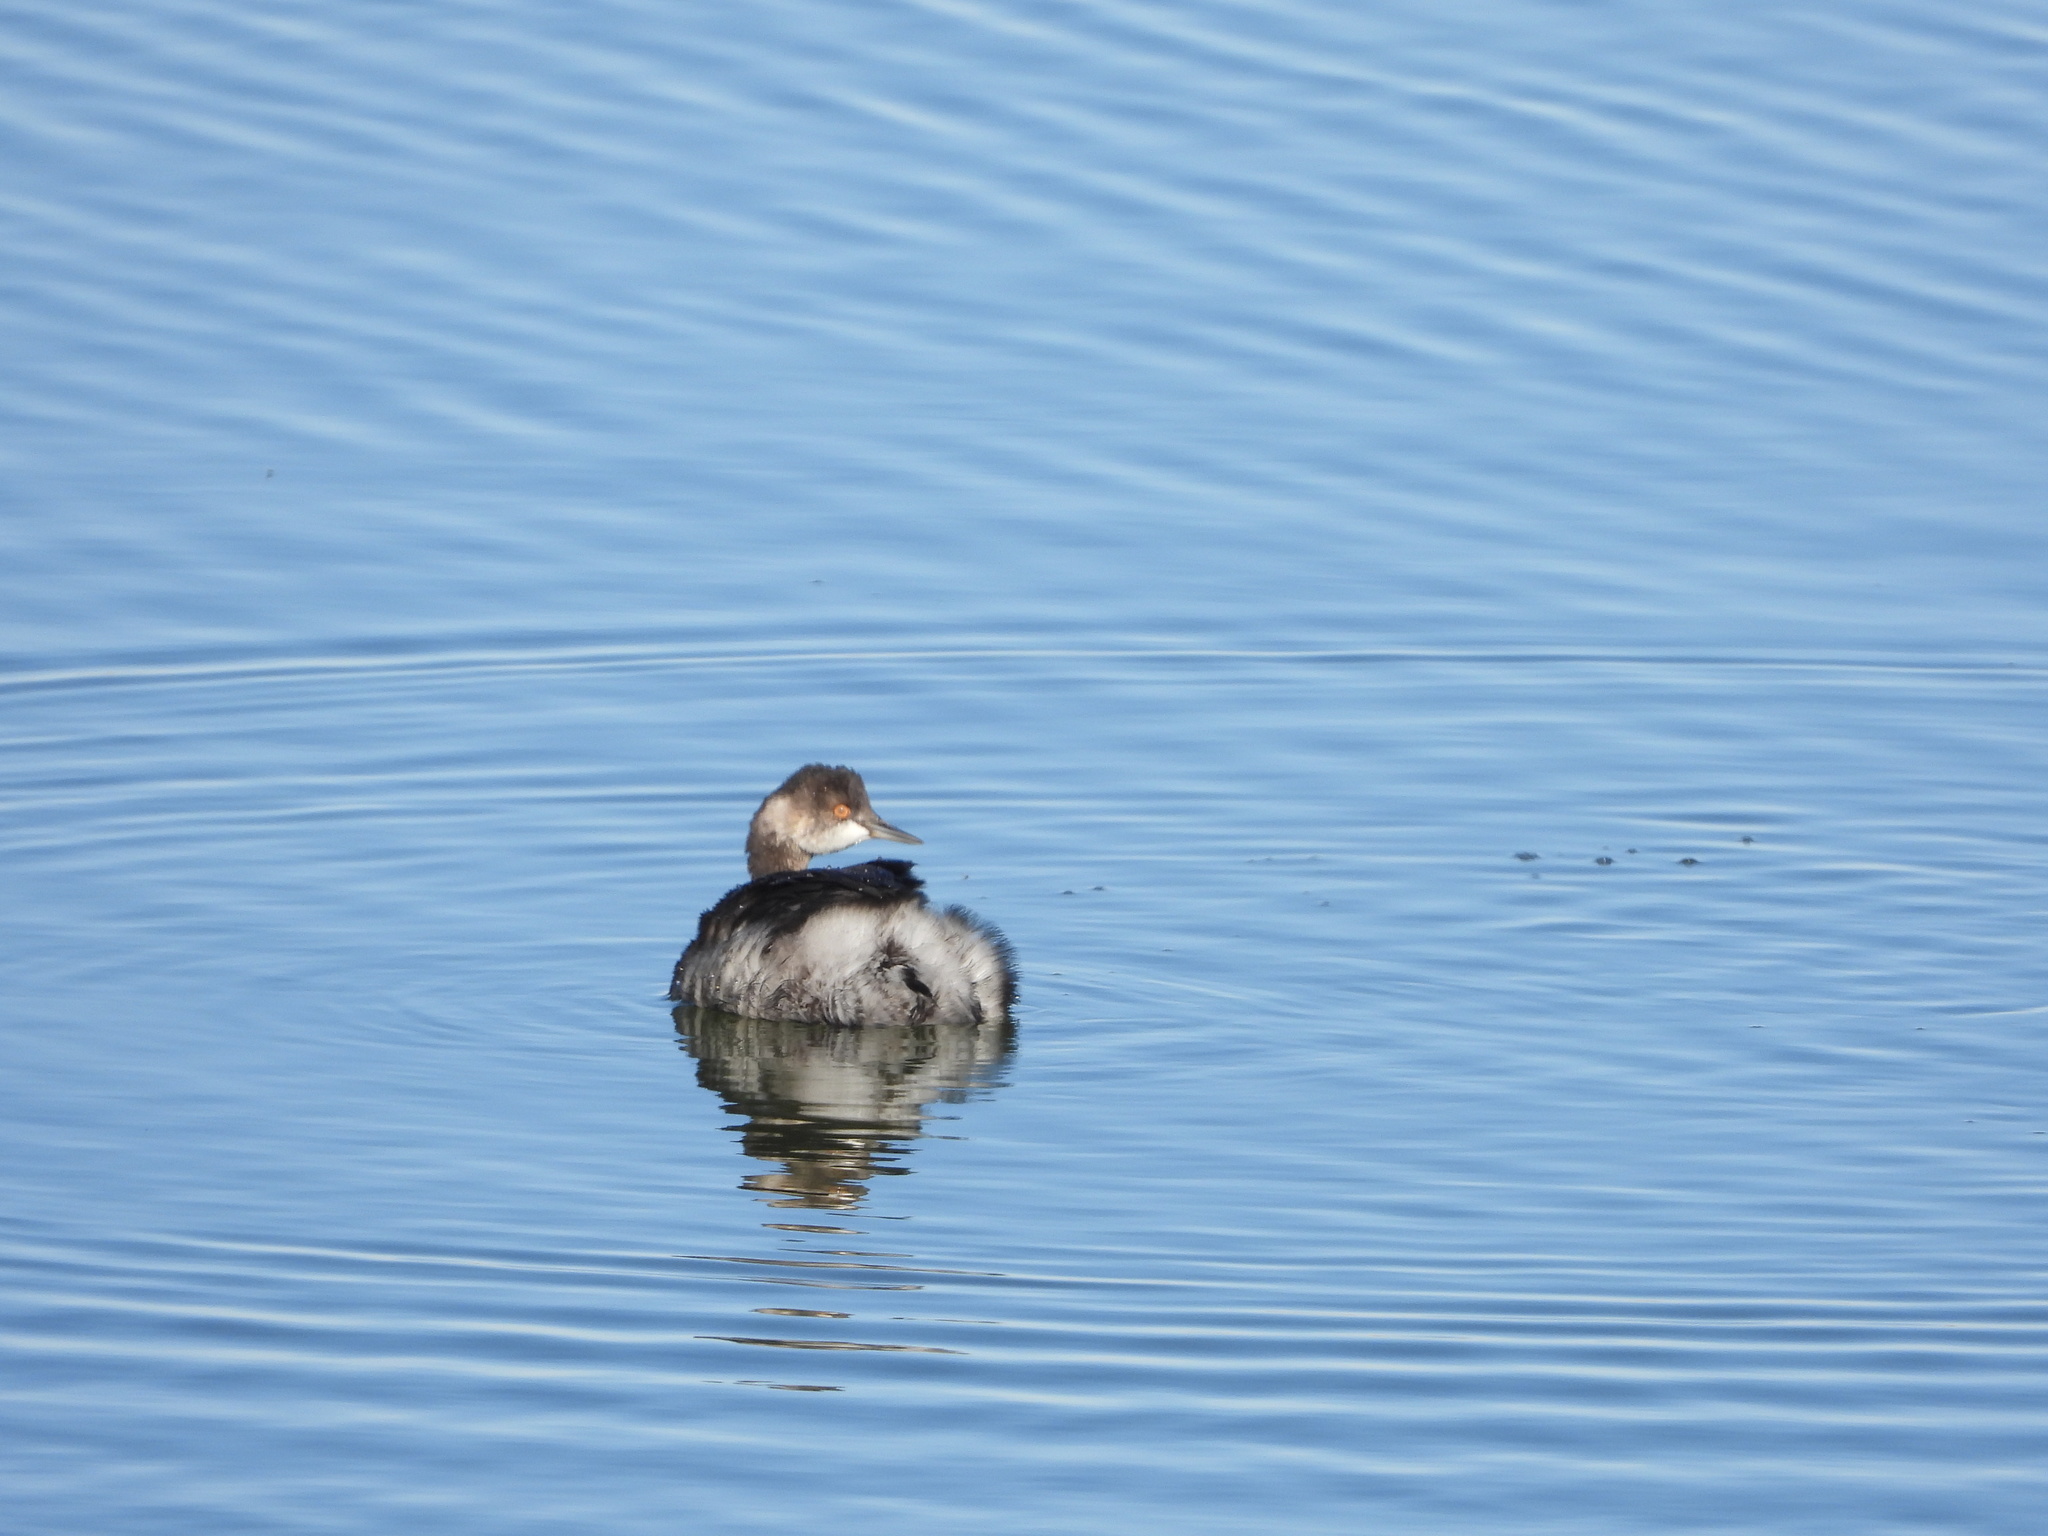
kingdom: Animalia
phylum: Chordata
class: Aves
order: Podicipediformes
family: Podicipedidae
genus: Podiceps
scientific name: Podiceps nigricollis
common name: Black-necked grebe
